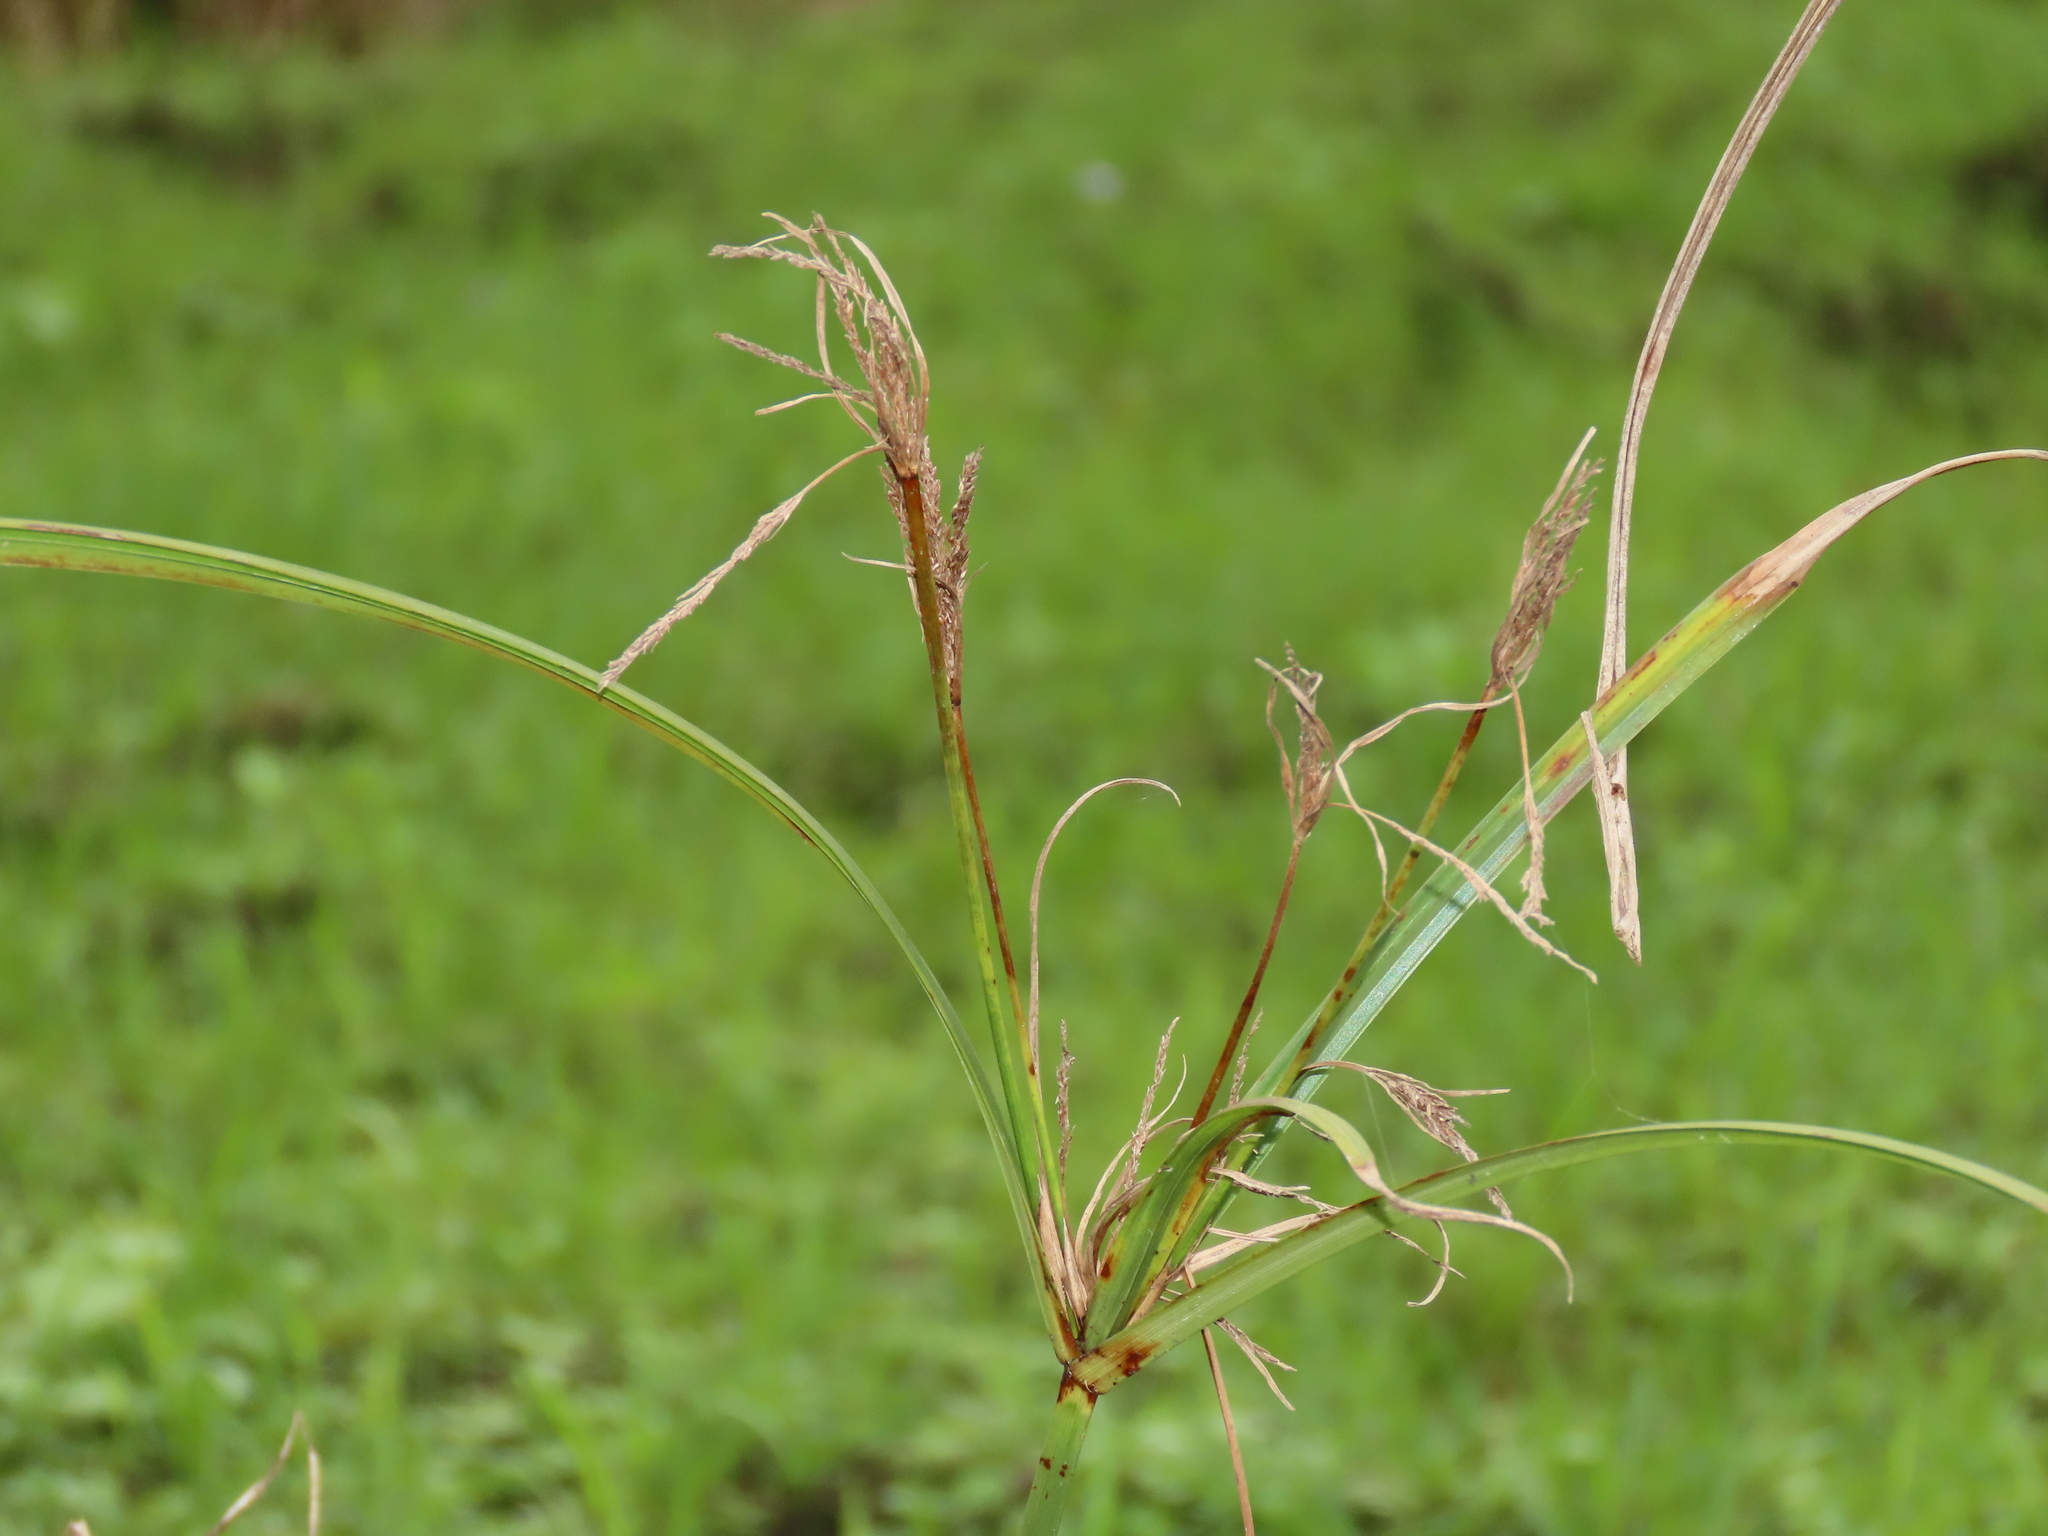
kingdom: Plantae
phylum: Tracheophyta
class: Liliopsida
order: Poales
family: Cyperaceae
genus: Cyperus
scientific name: Cyperus nutans
